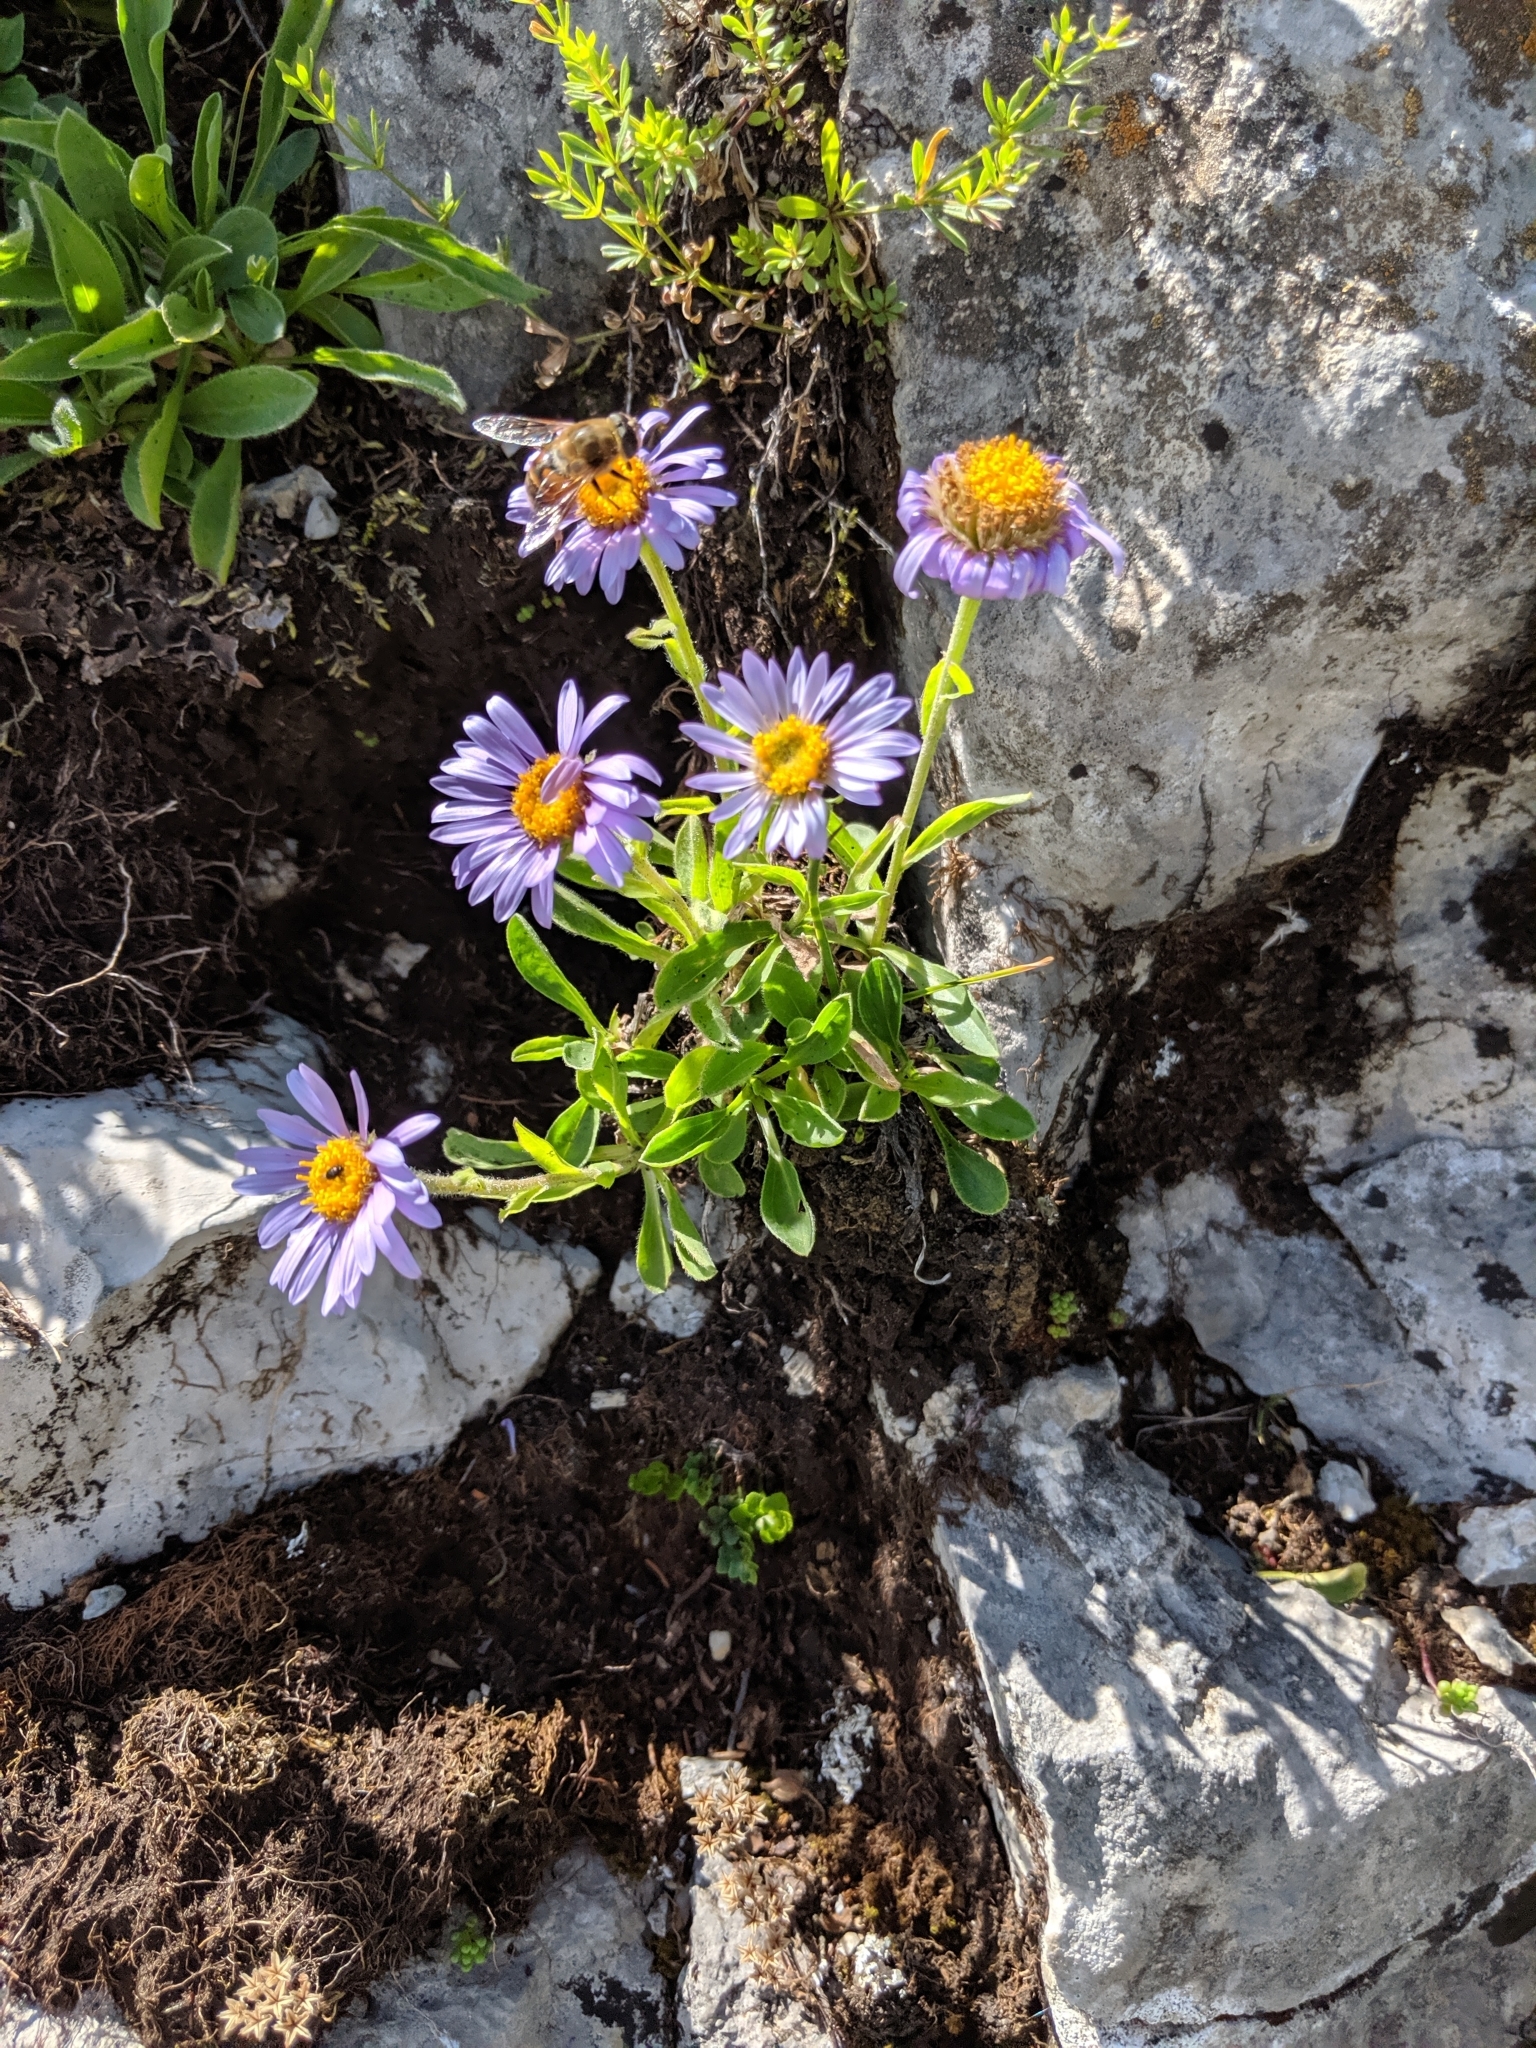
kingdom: Plantae
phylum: Tracheophyta
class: Magnoliopsida
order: Asterales
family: Asteraceae
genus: Aster
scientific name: Aster alpinus
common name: Alpine aster
